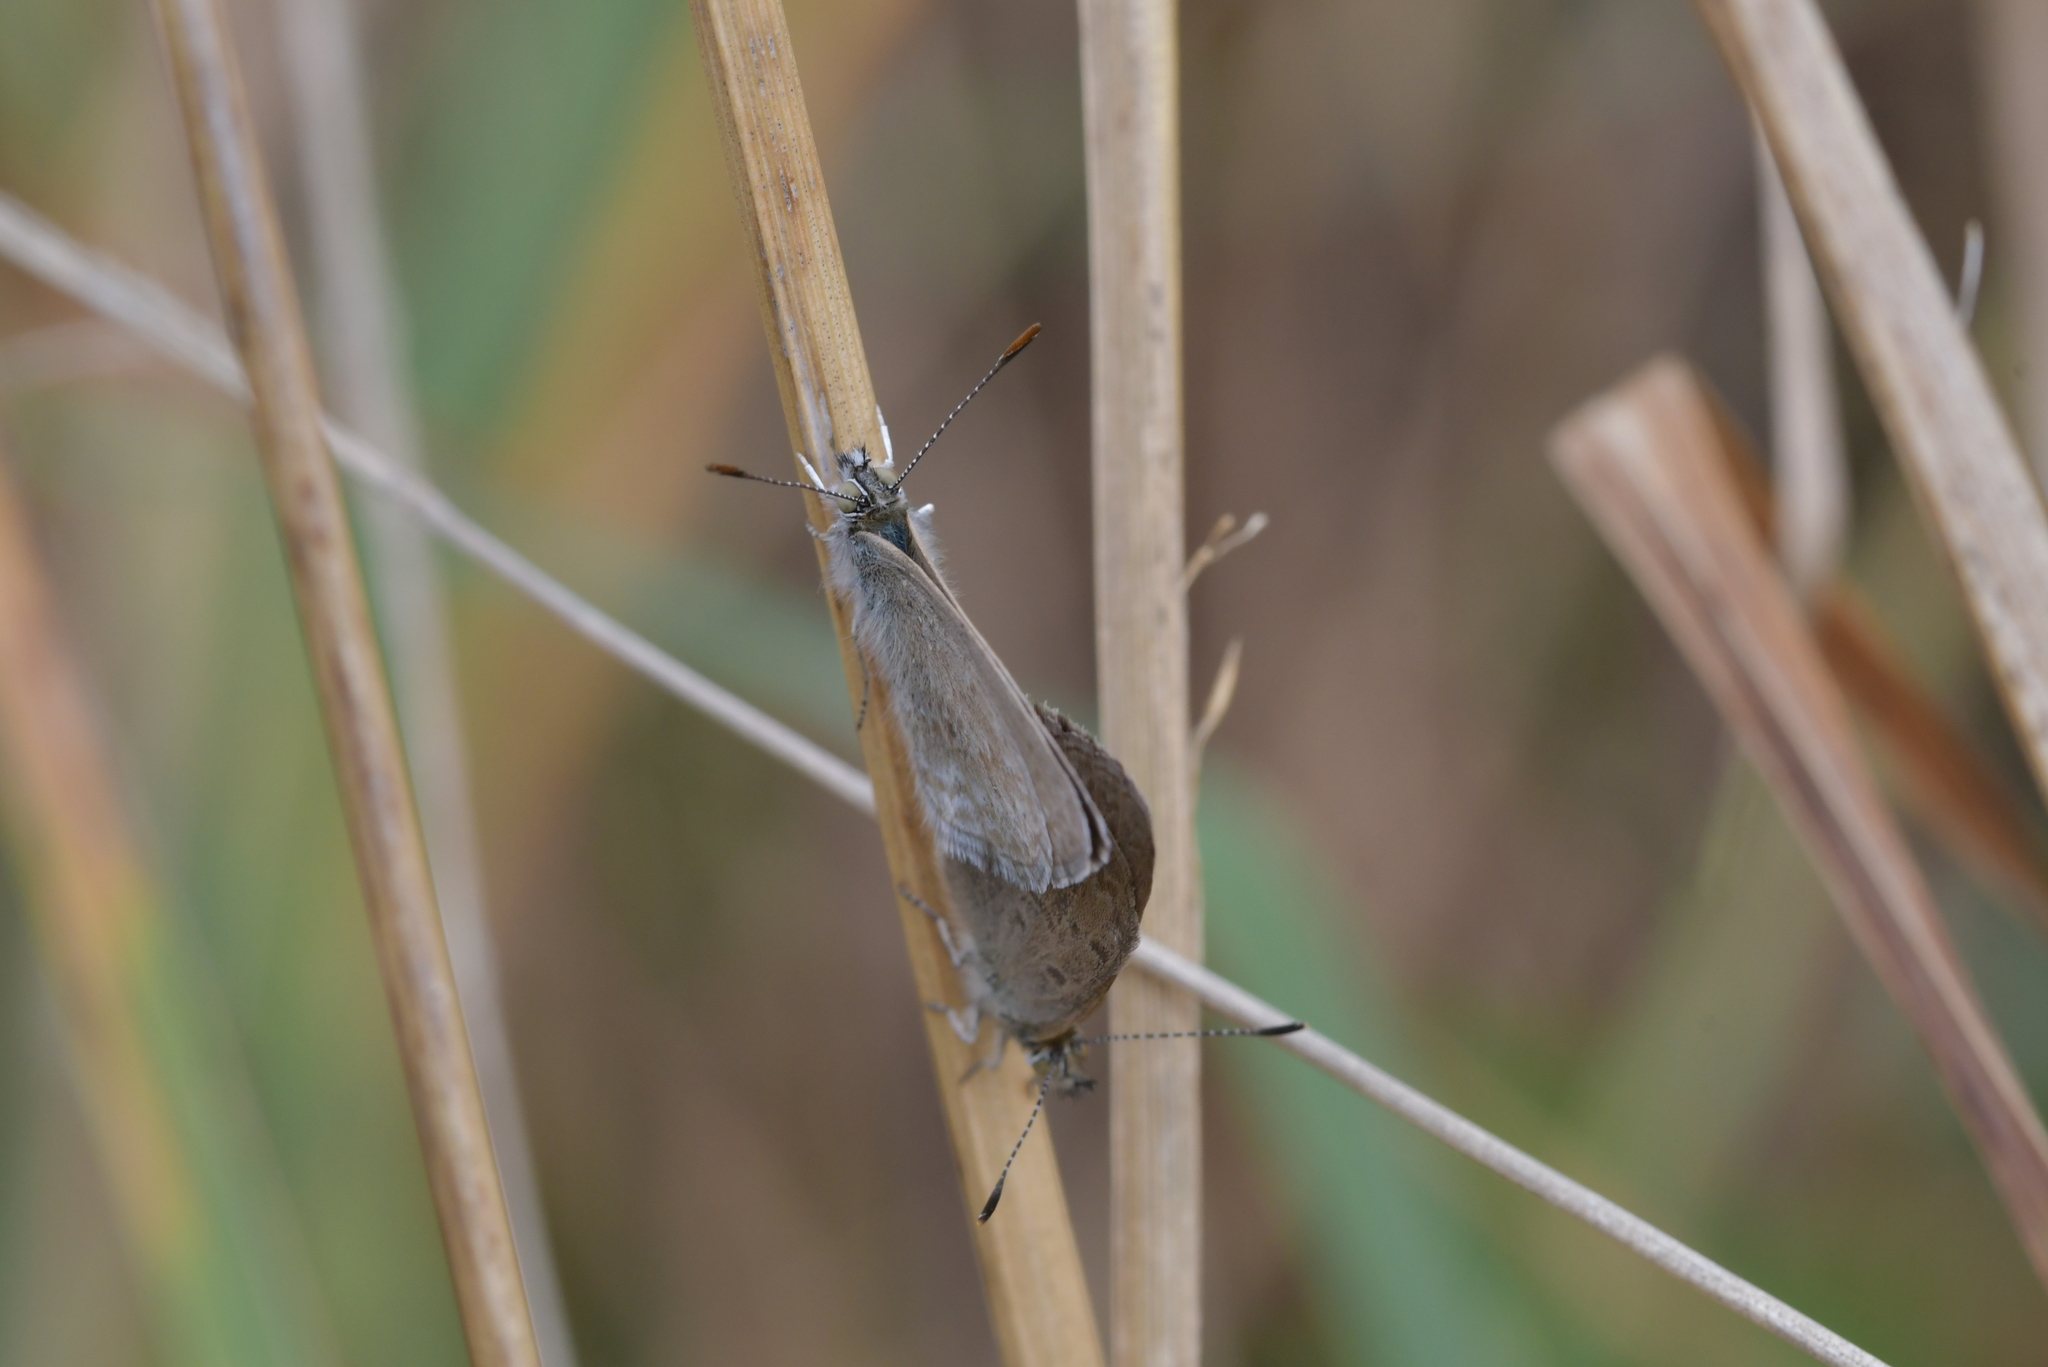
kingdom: Animalia
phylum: Arthropoda
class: Insecta
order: Lepidoptera
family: Lycaenidae
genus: Zizina
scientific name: Zizina labradus
